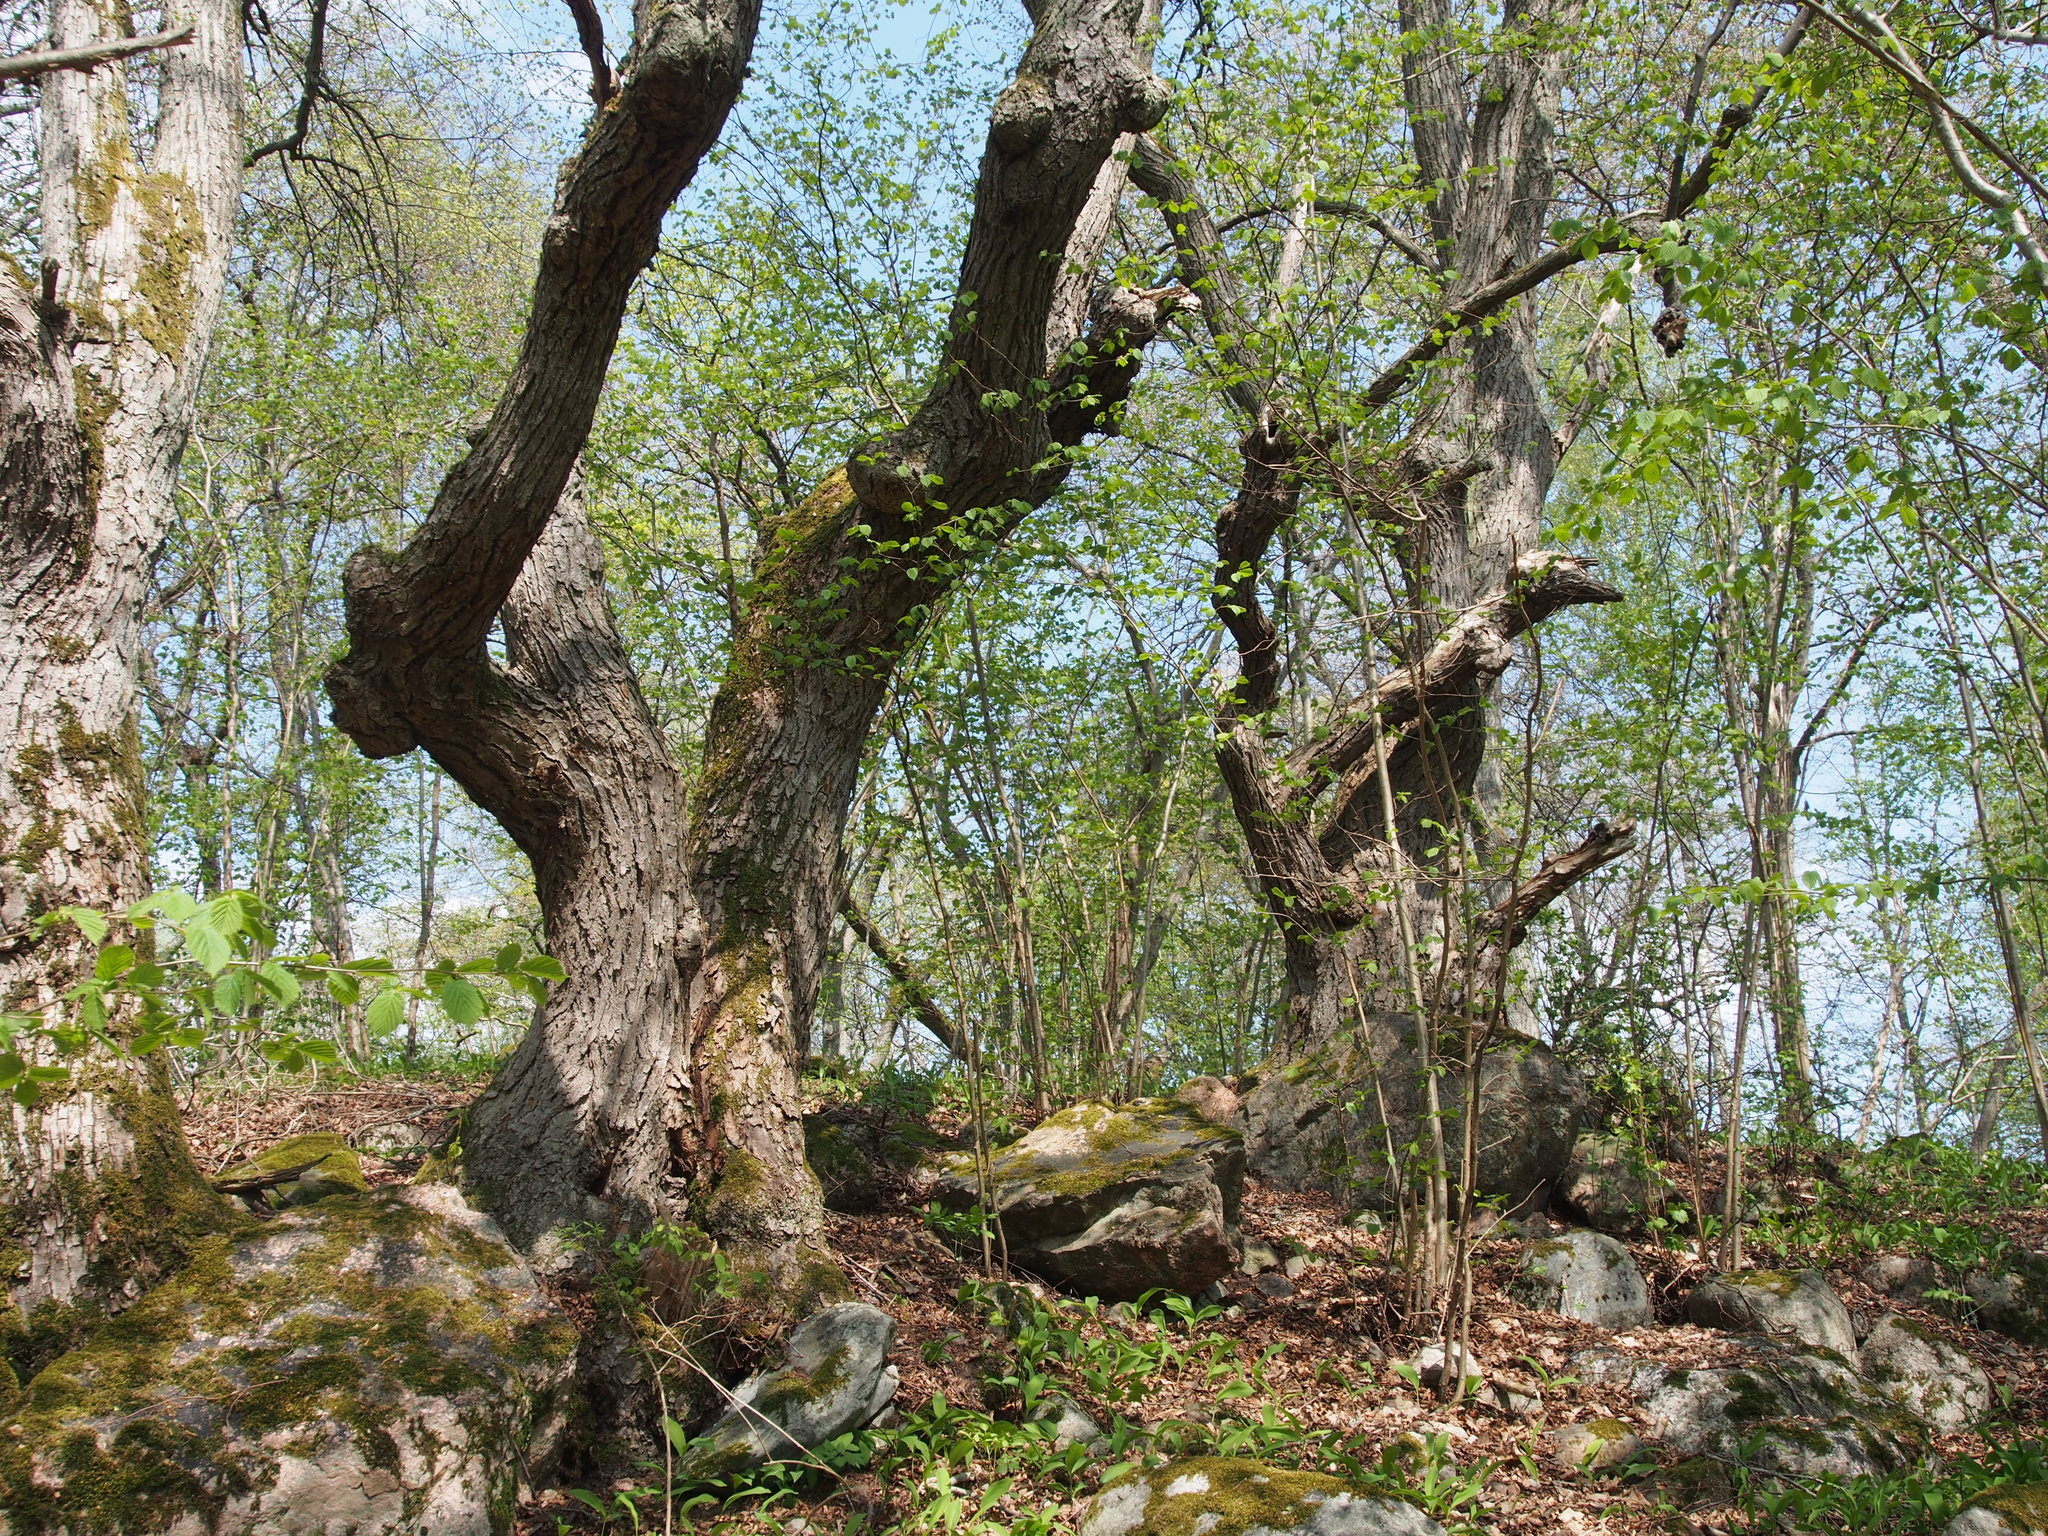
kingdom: Plantae
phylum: Tracheophyta
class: Magnoliopsida
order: Malvales
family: Malvaceae
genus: Tilia
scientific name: Tilia cordata
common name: Small-leaved lime
